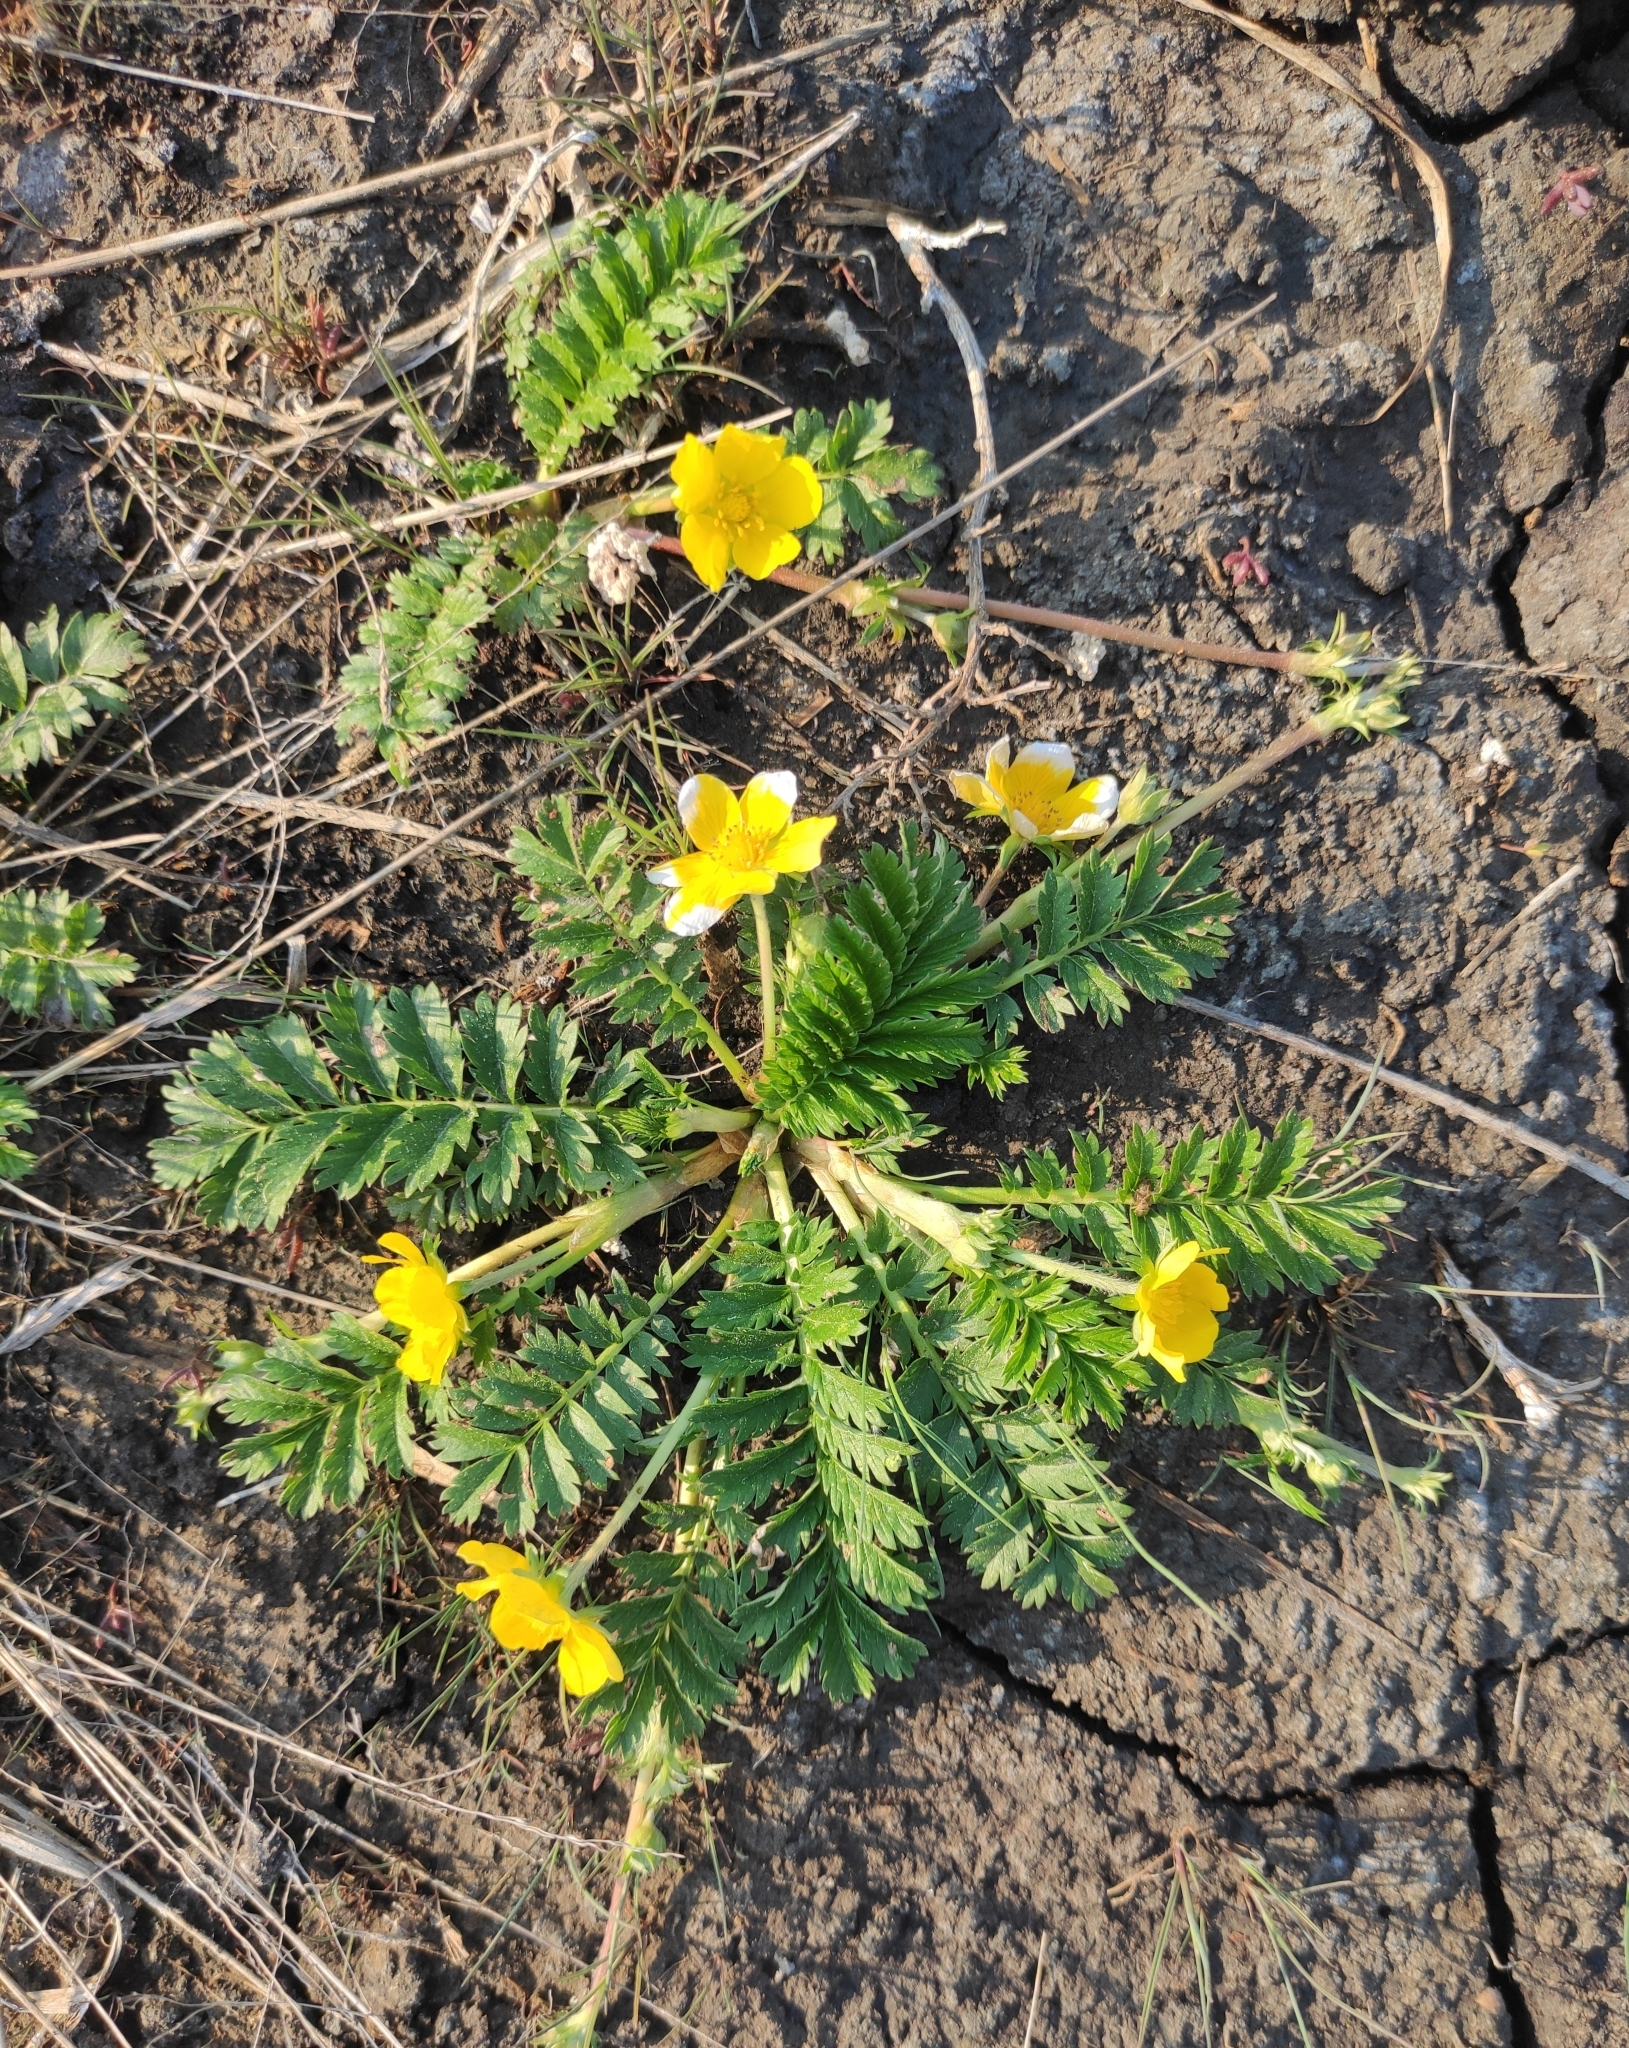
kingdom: Plantae
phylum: Tracheophyta
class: Magnoliopsida
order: Rosales
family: Rosaceae
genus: Argentina
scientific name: Argentina anserina
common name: Common silverweed
